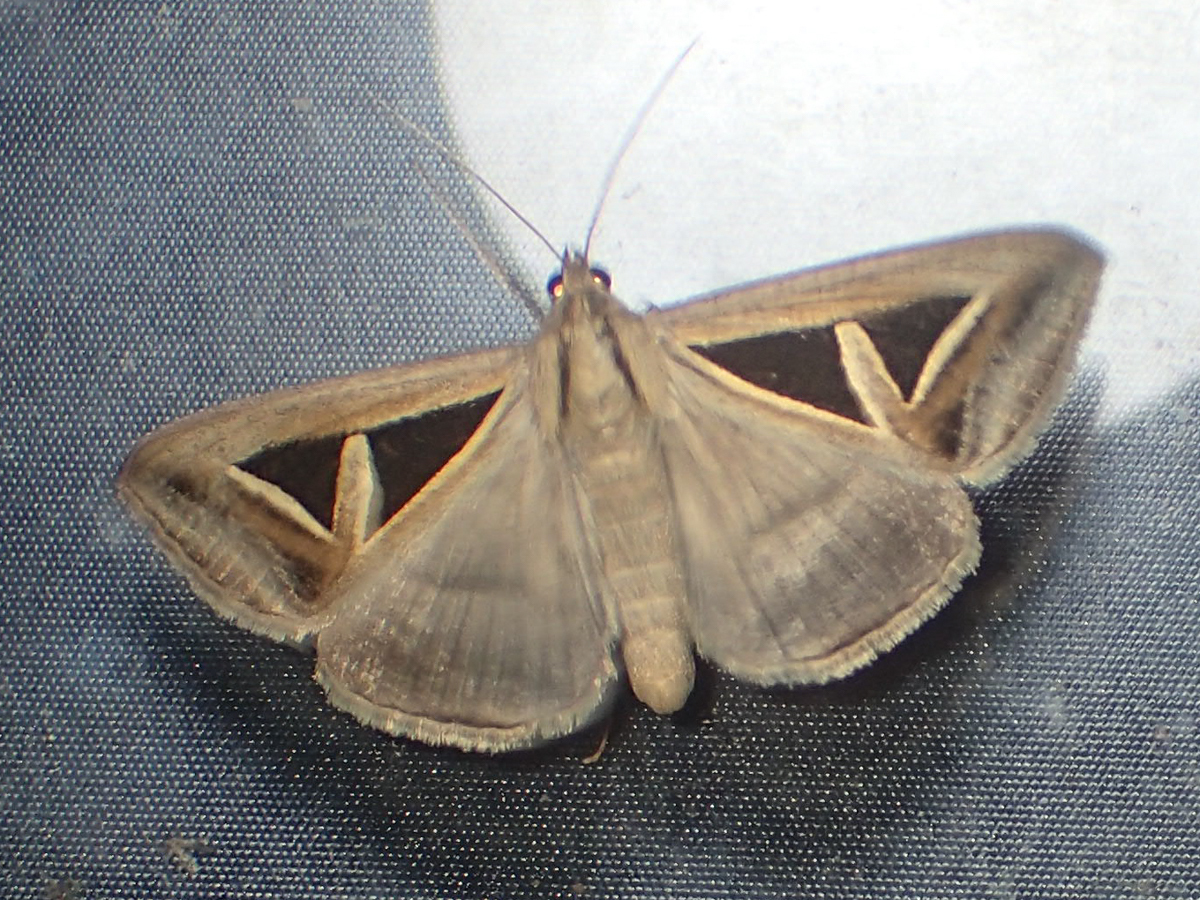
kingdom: Animalia
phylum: Arthropoda
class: Insecta
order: Lepidoptera
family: Erebidae
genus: Trigonodes
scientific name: Trigonodes hyppasia
